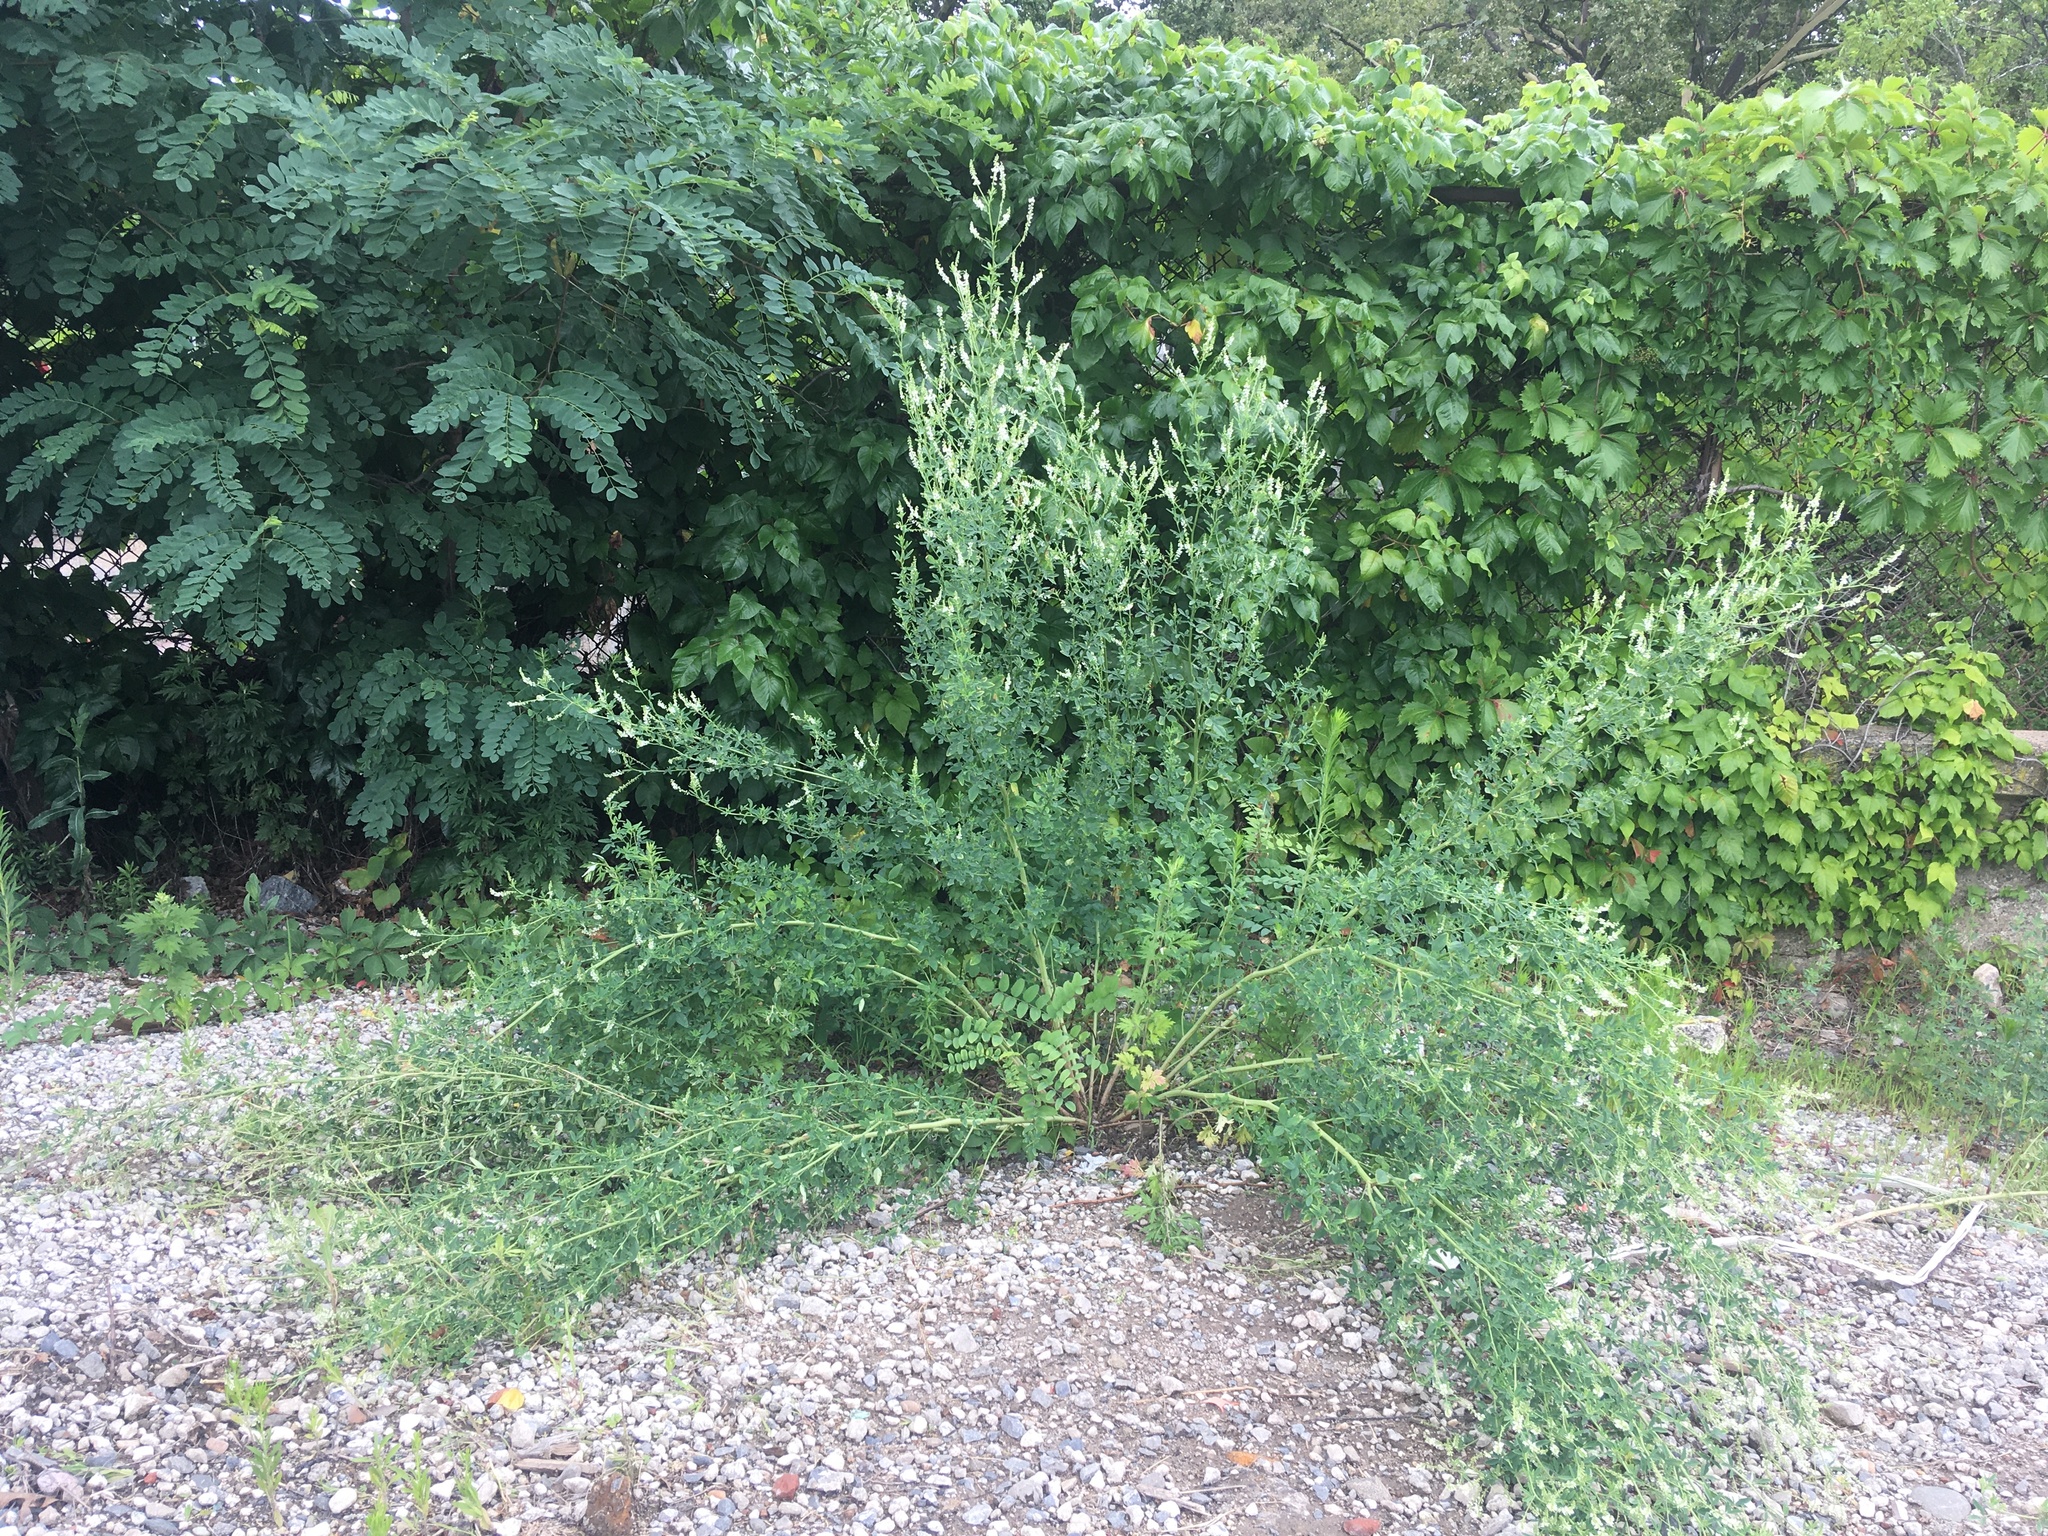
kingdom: Plantae
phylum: Tracheophyta
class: Magnoliopsida
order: Fabales
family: Fabaceae
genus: Melilotus
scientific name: Melilotus albus
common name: White melilot
